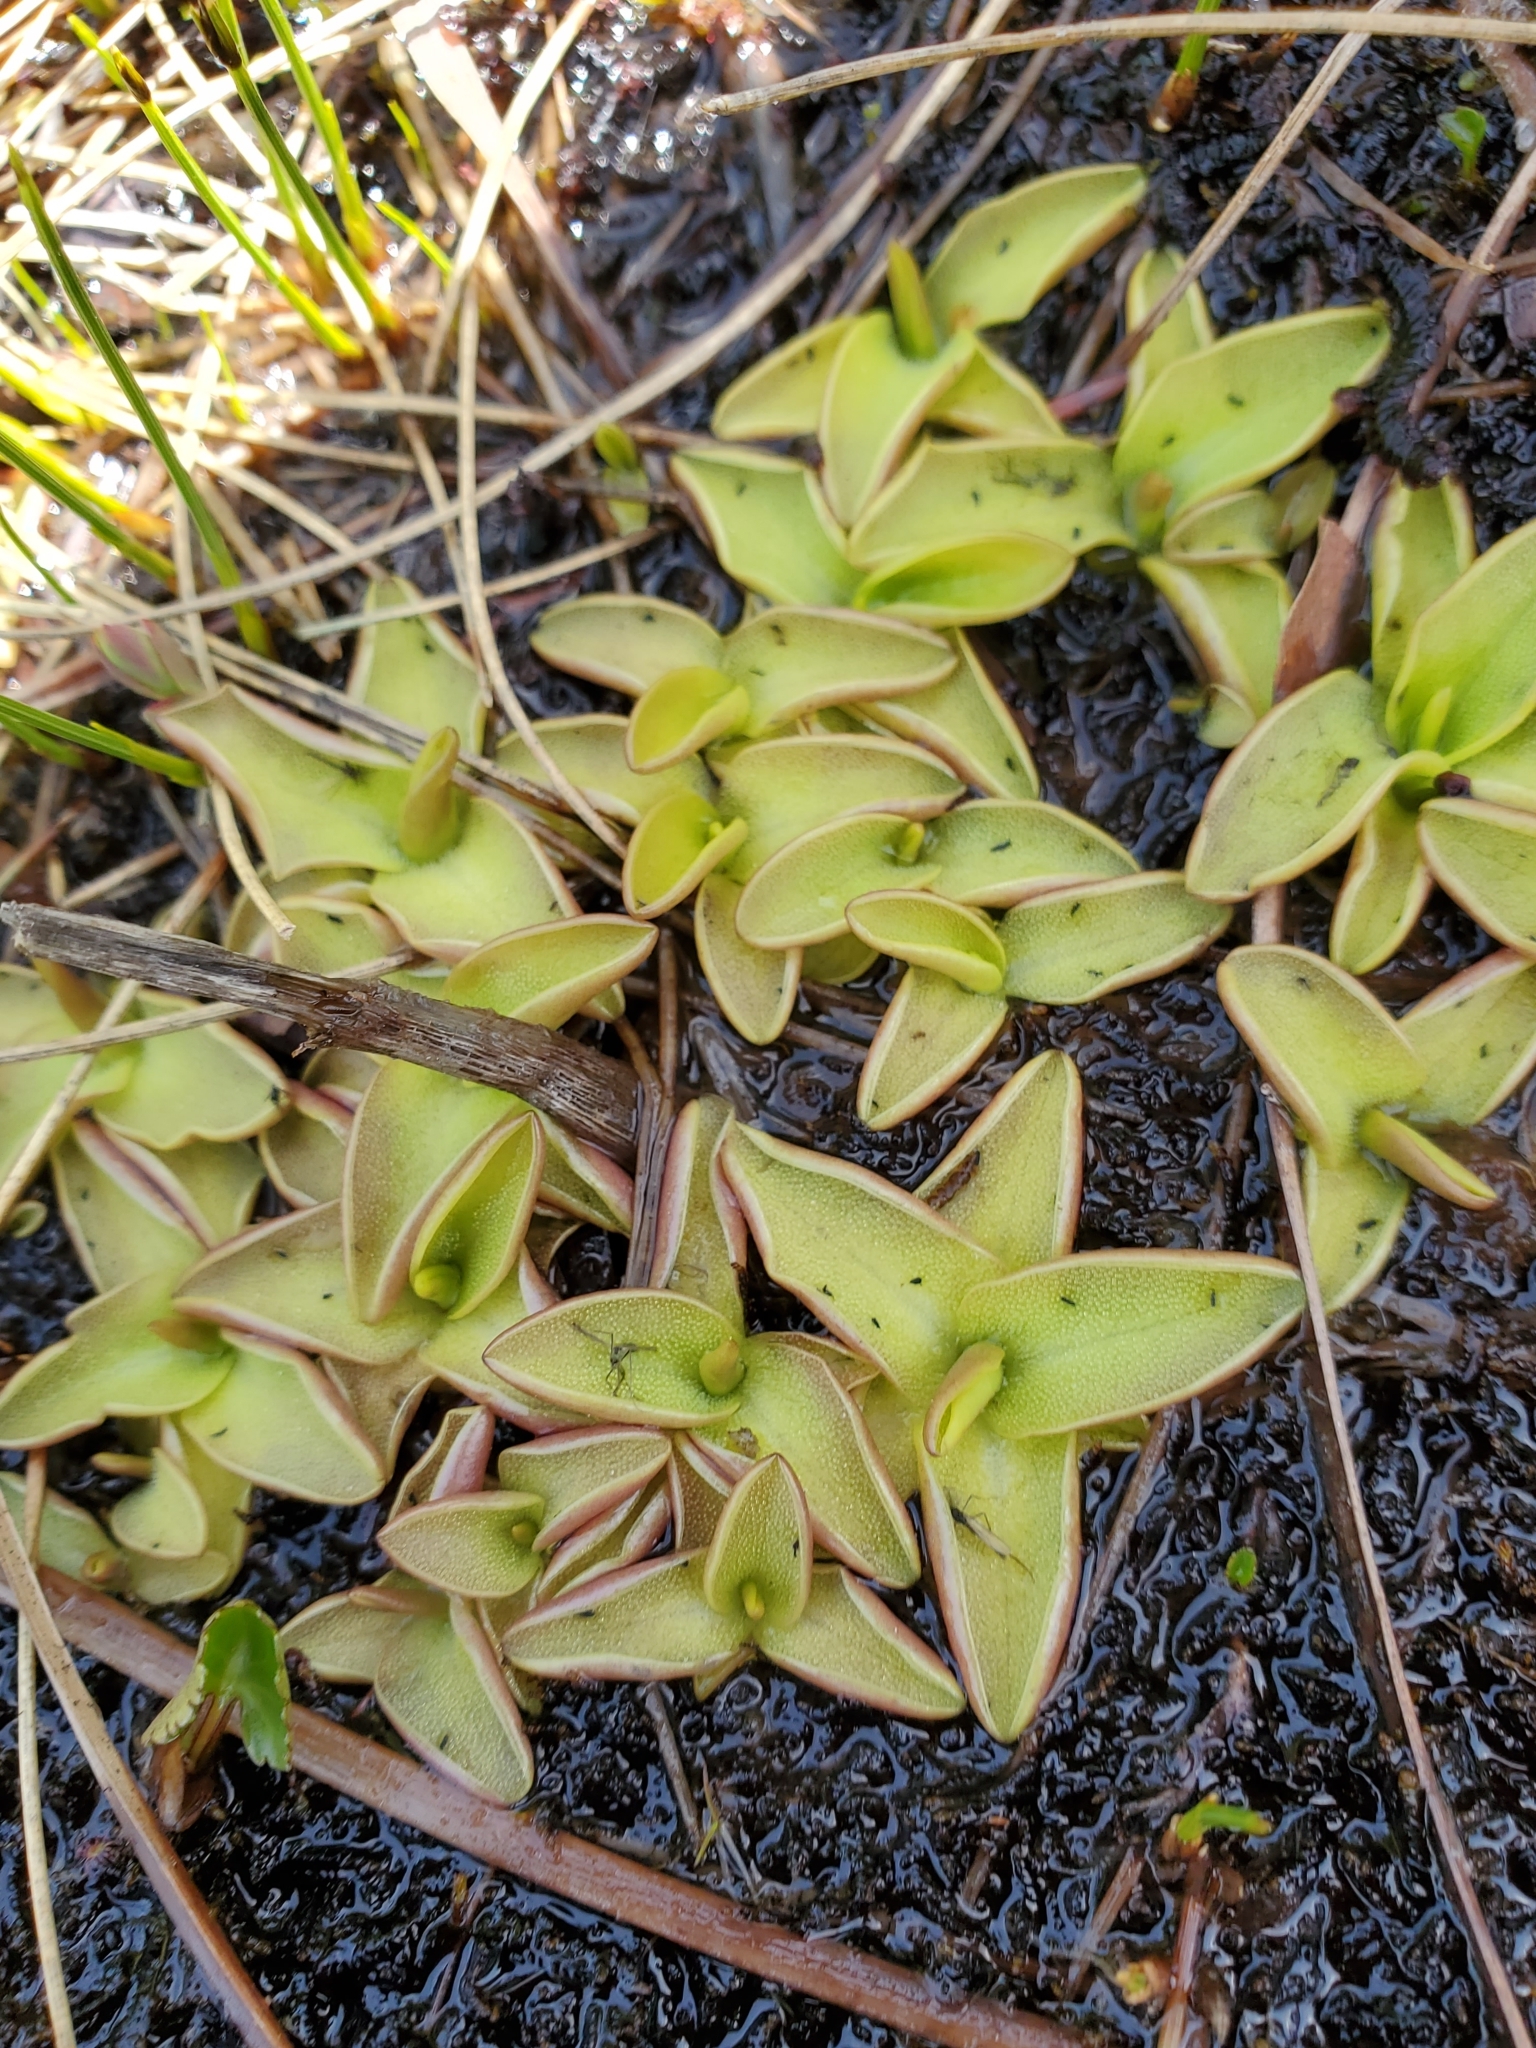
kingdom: Plantae
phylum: Tracheophyta
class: Magnoliopsida
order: Lamiales
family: Lentibulariaceae
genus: Pinguicula
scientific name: Pinguicula vulgaris
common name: Common butterwort
